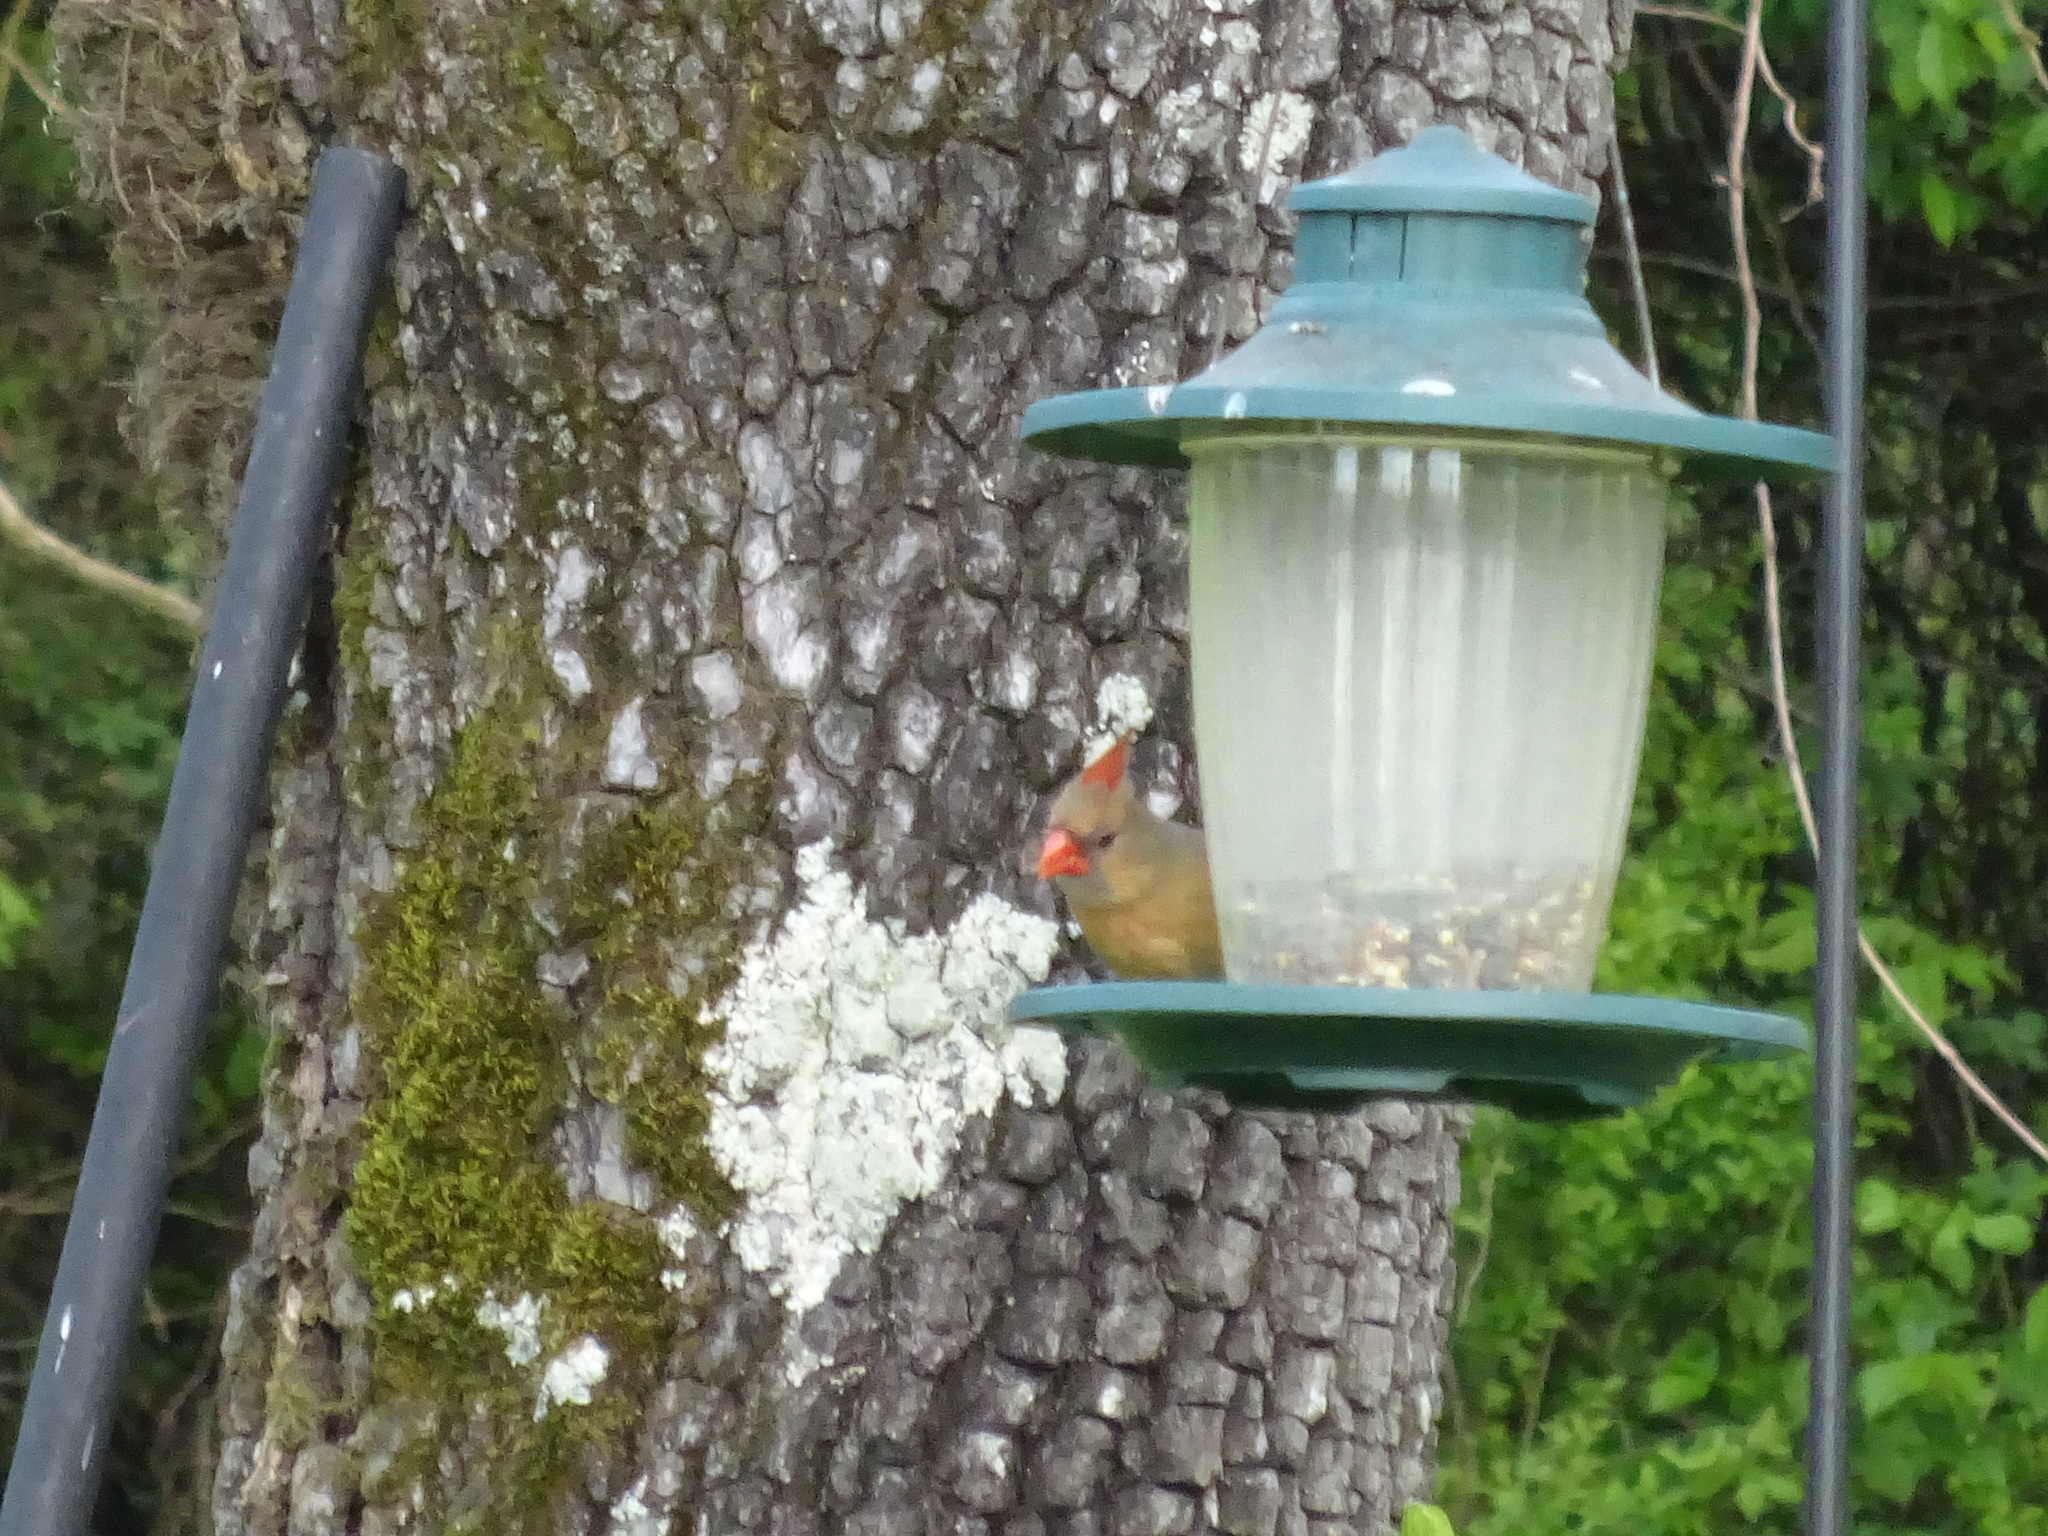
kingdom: Animalia
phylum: Chordata
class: Aves
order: Passeriformes
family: Cardinalidae
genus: Cardinalis
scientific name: Cardinalis cardinalis
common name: Northern cardinal
